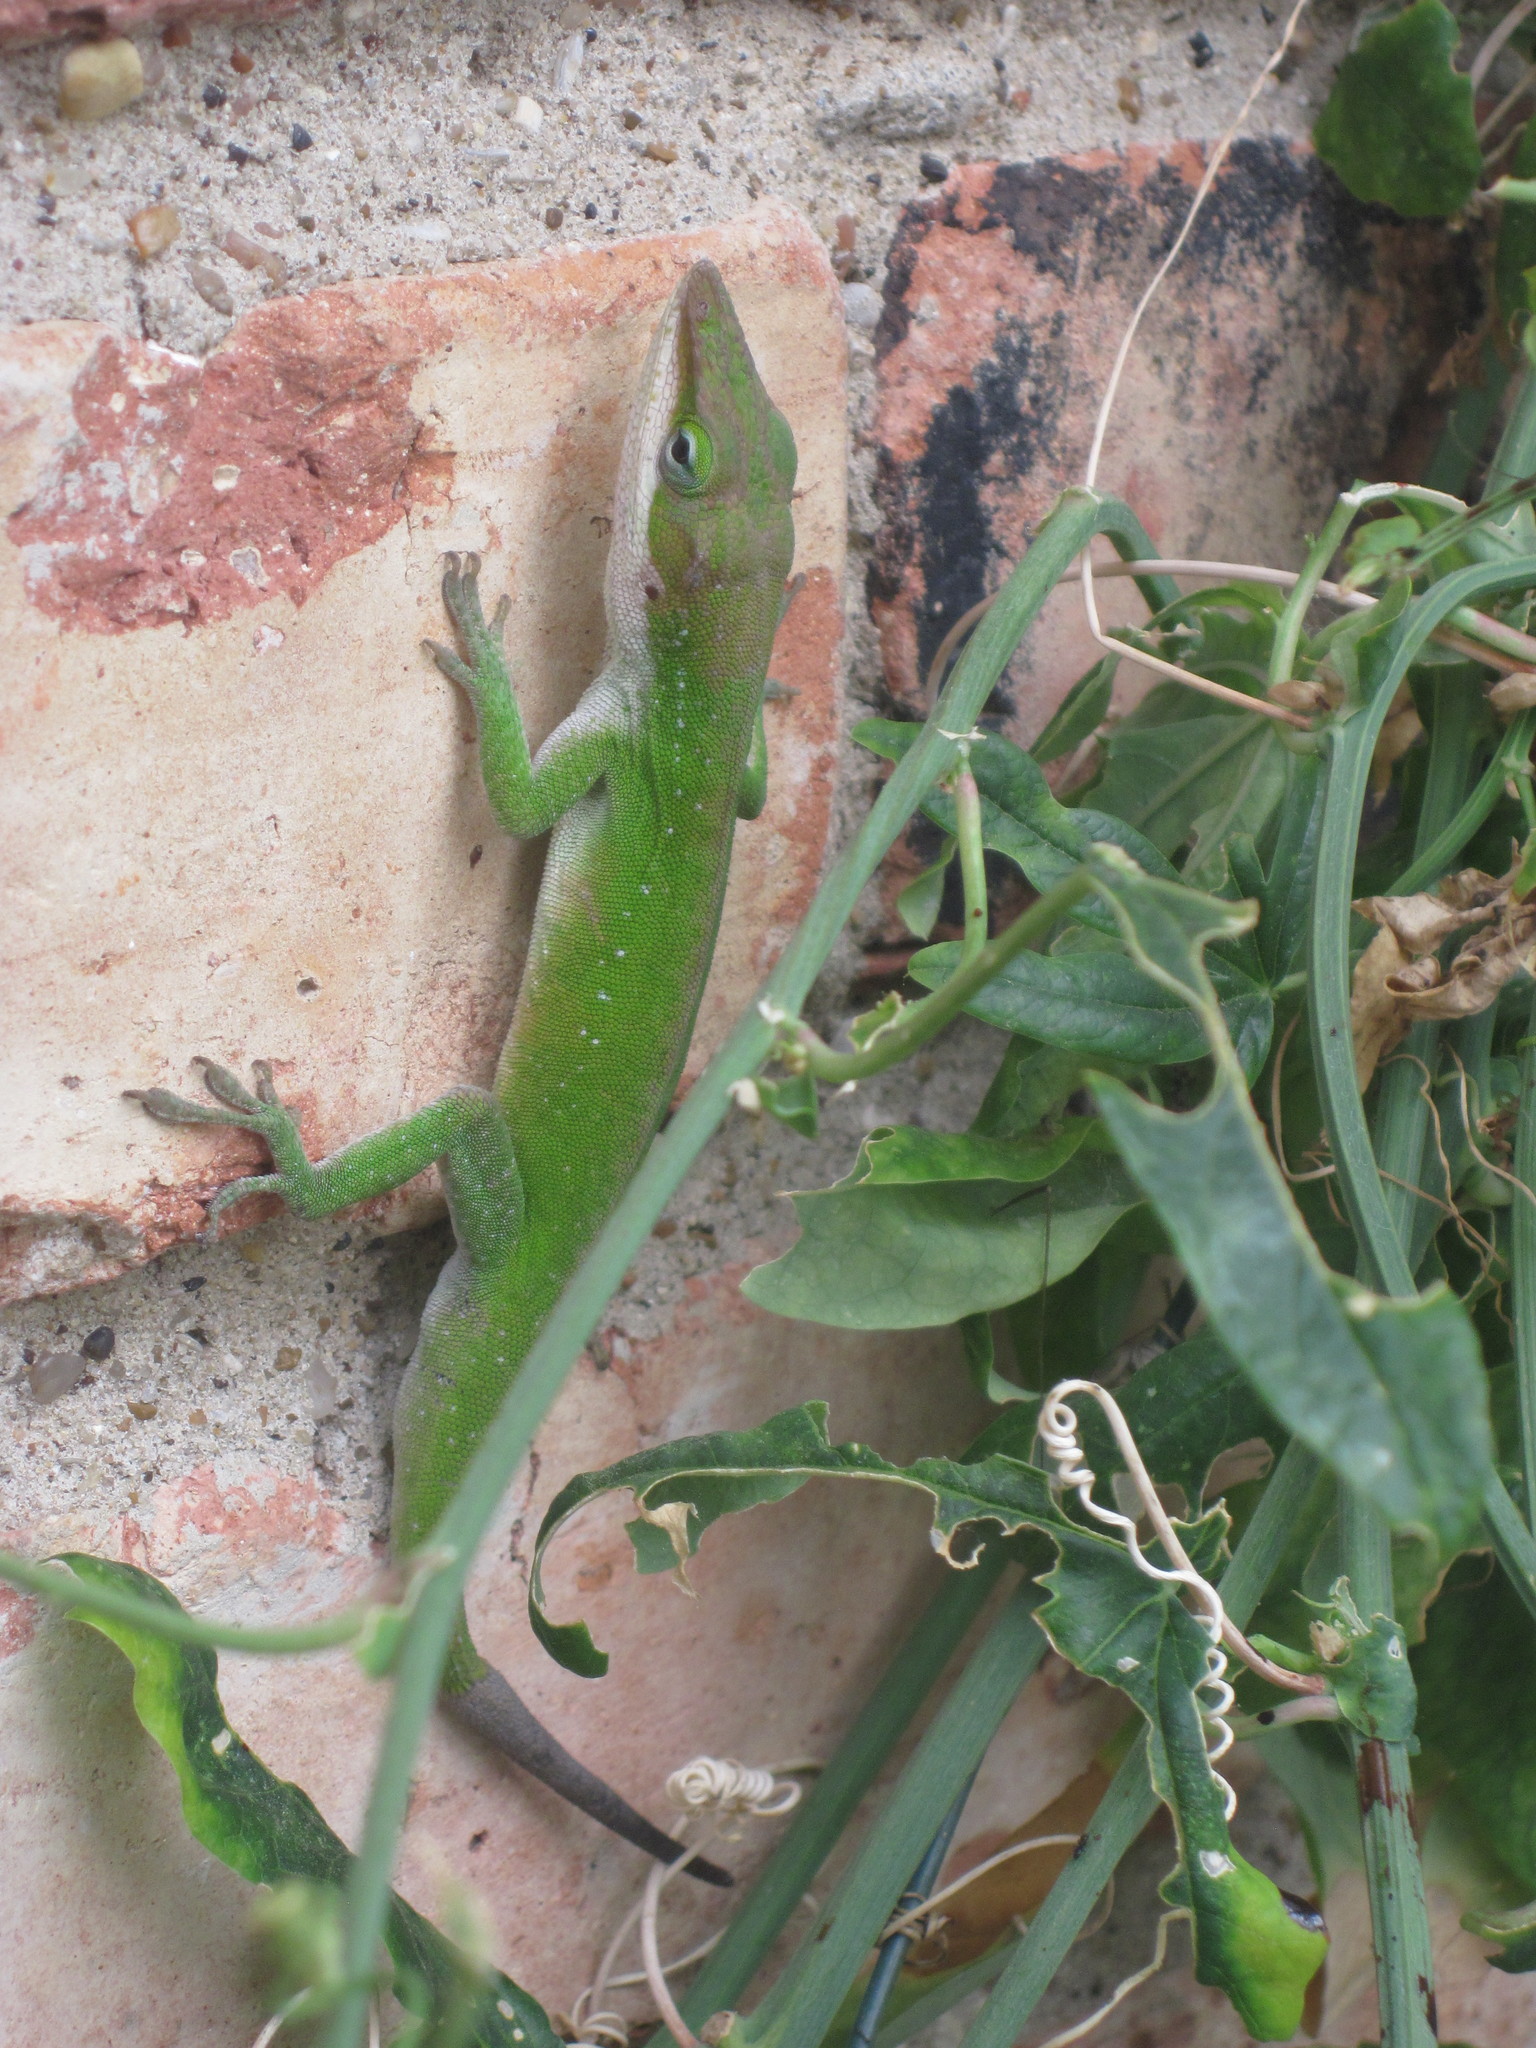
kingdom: Animalia
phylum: Chordata
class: Squamata
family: Dactyloidae
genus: Anolis
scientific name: Anolis carolinensis
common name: Green anole
